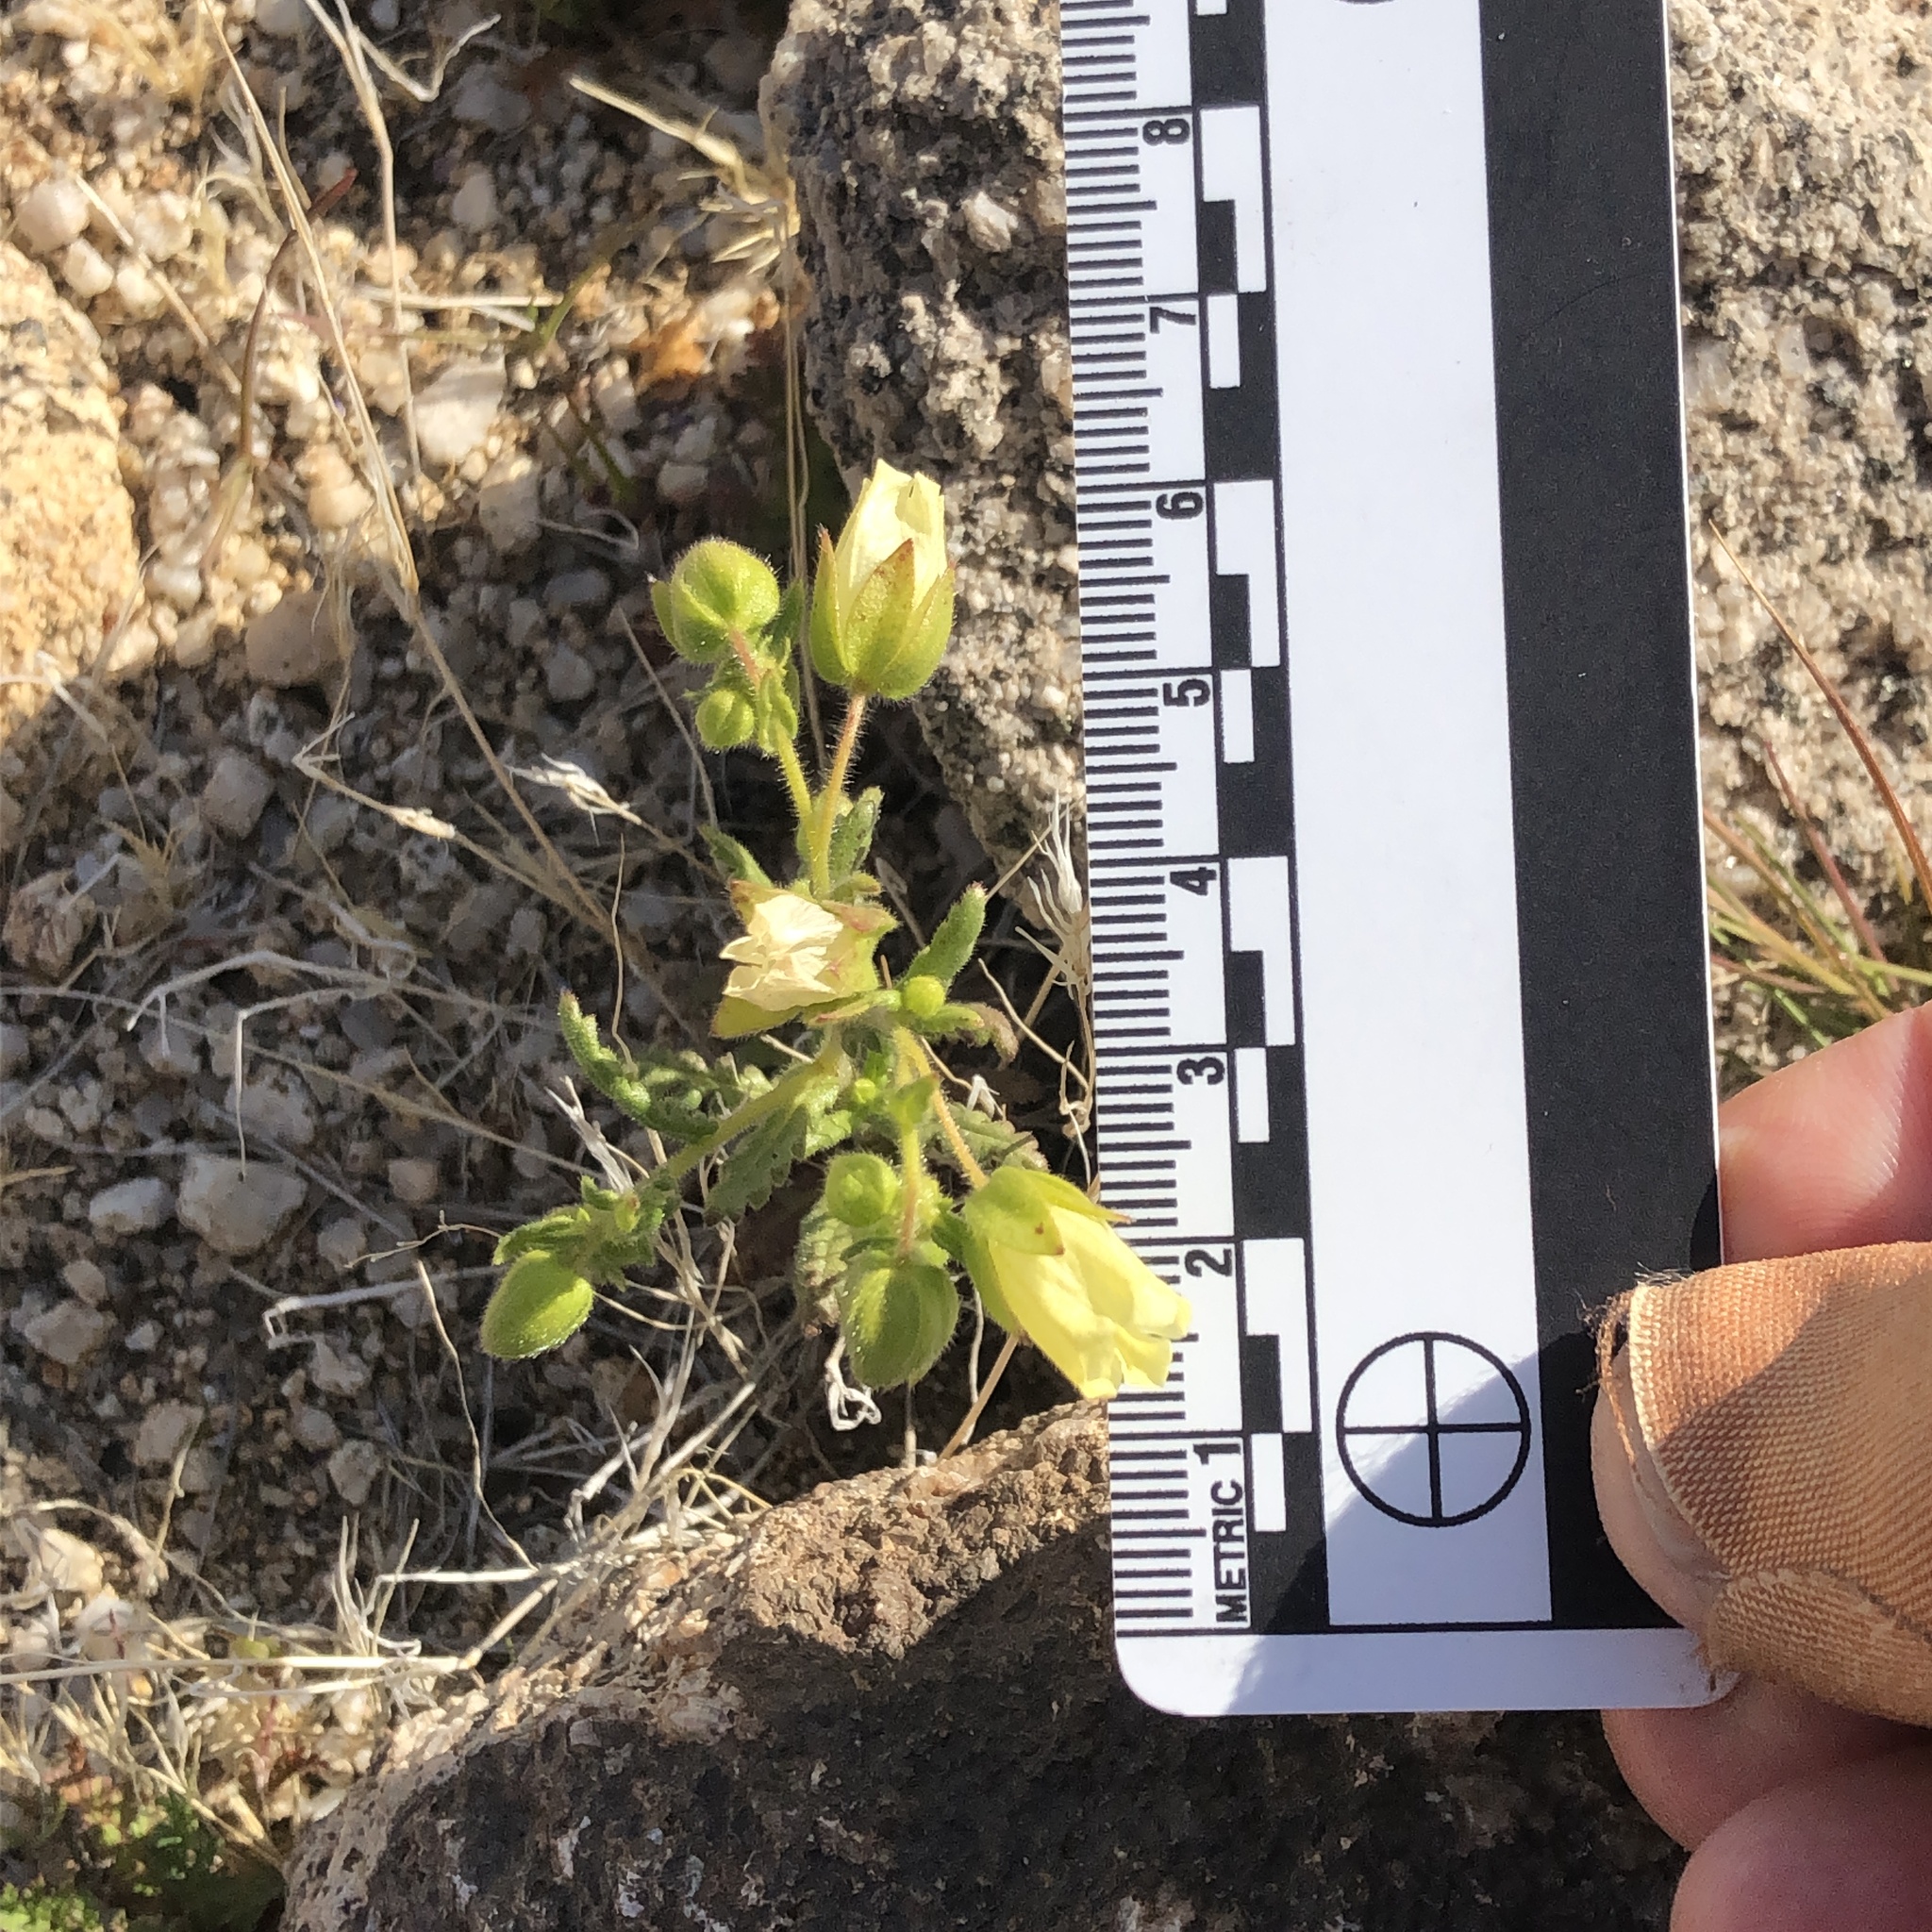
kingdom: Plantae
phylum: Tracheophyta
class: Magnoliopsida
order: Boraginales
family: Hydrophyllaceae
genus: Emmenanthe
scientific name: Emmenanthe penduliflora
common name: Whispering-bells
